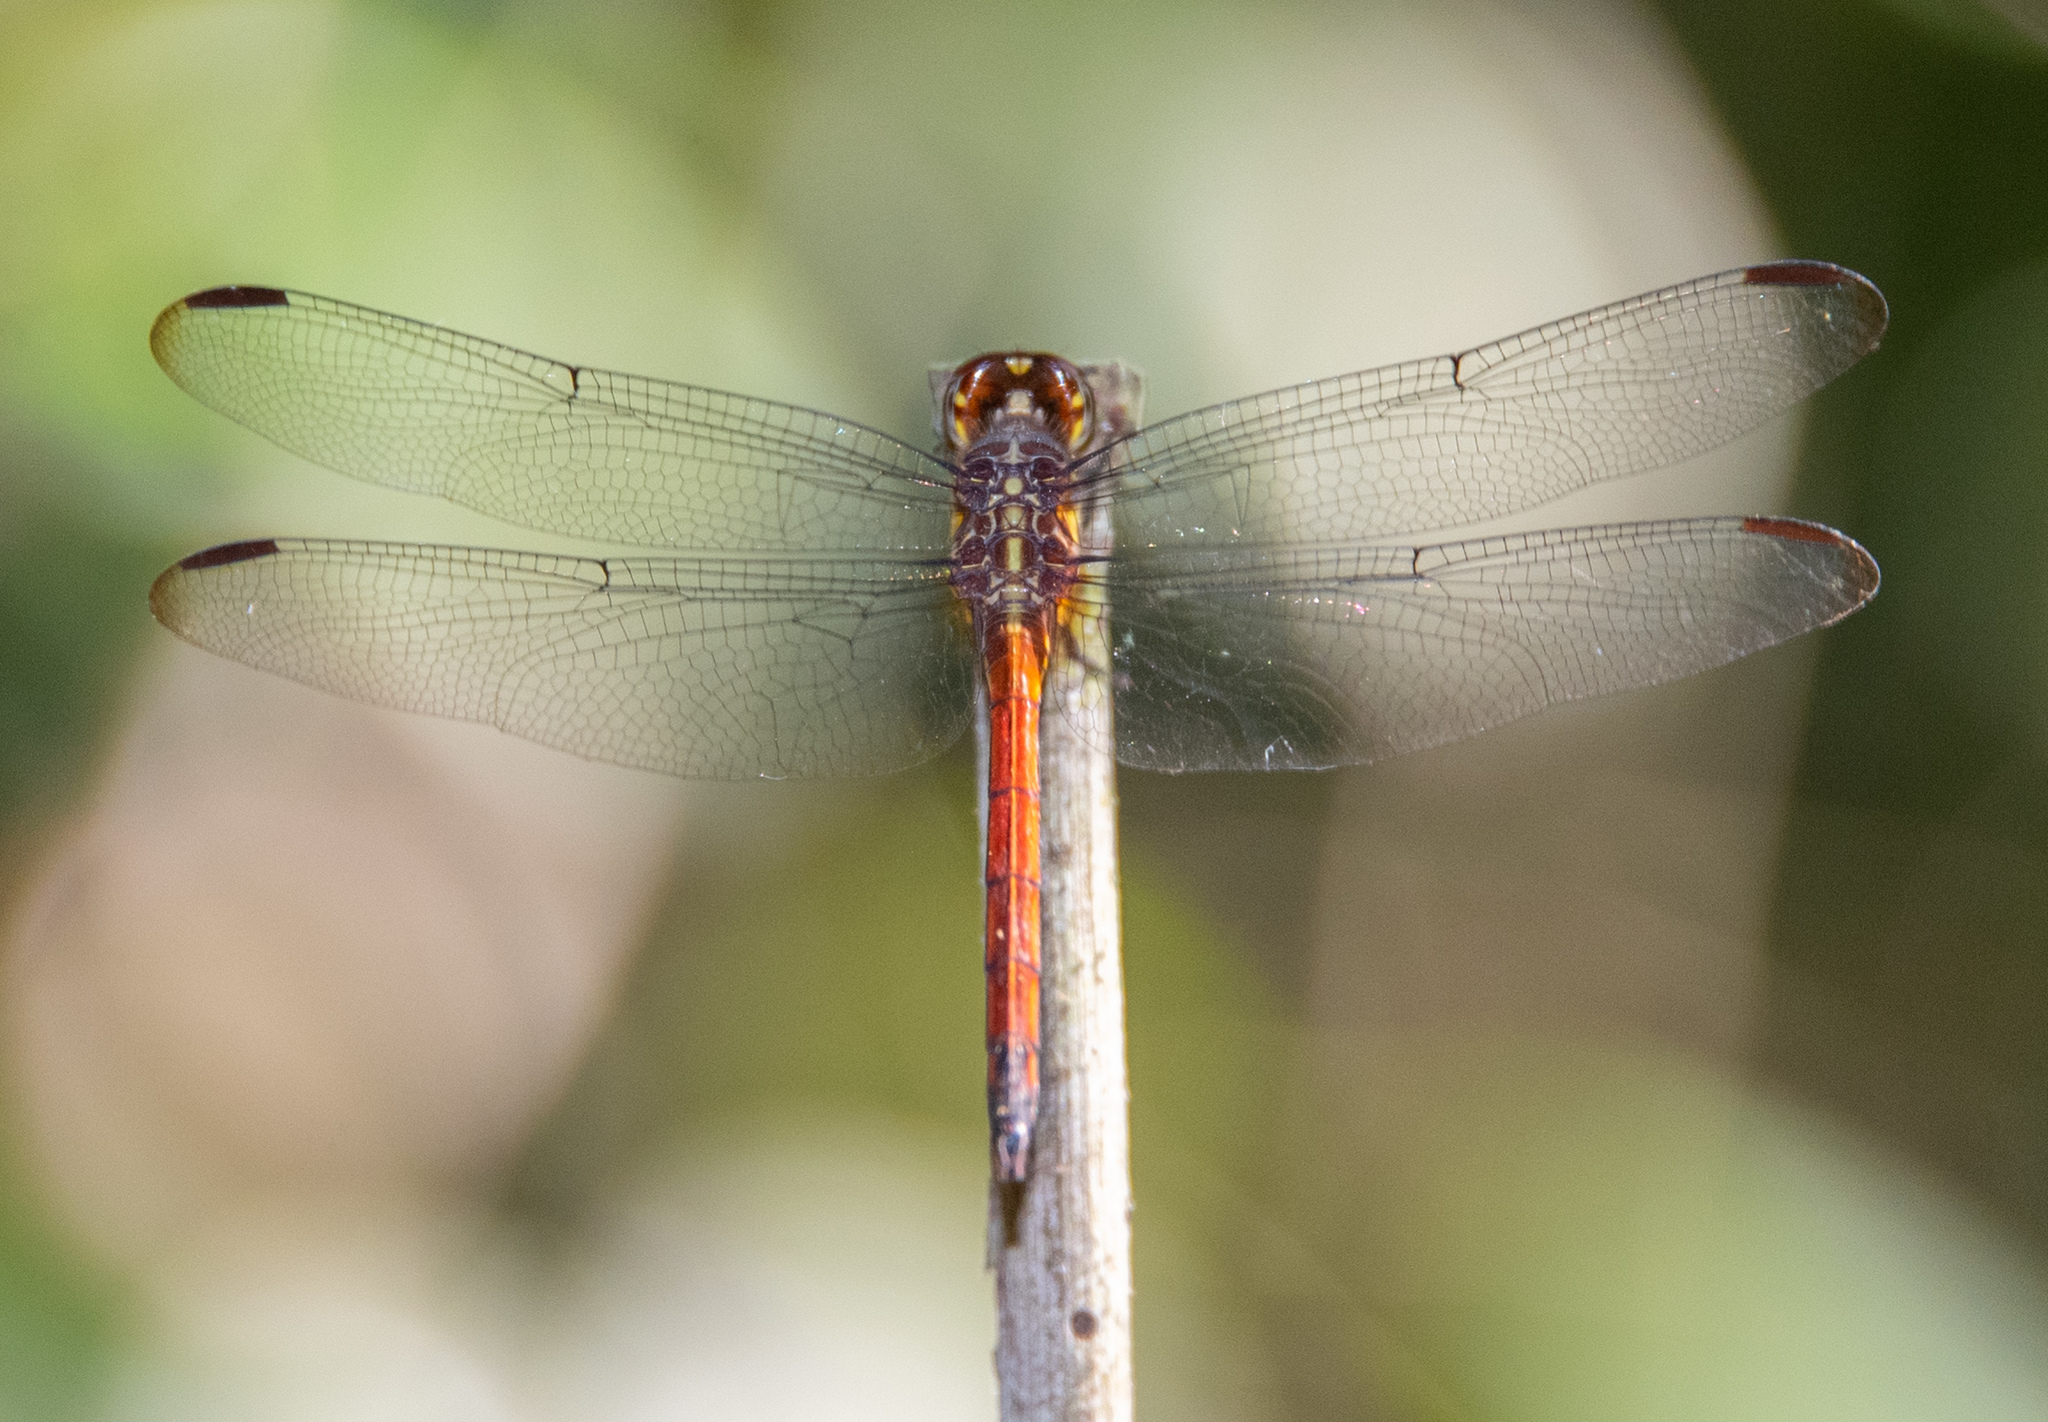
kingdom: Animalia
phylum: Arthropoda
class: Insecta
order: Odonata
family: Libellulidae
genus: Orthemis
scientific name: Orthemis levis
